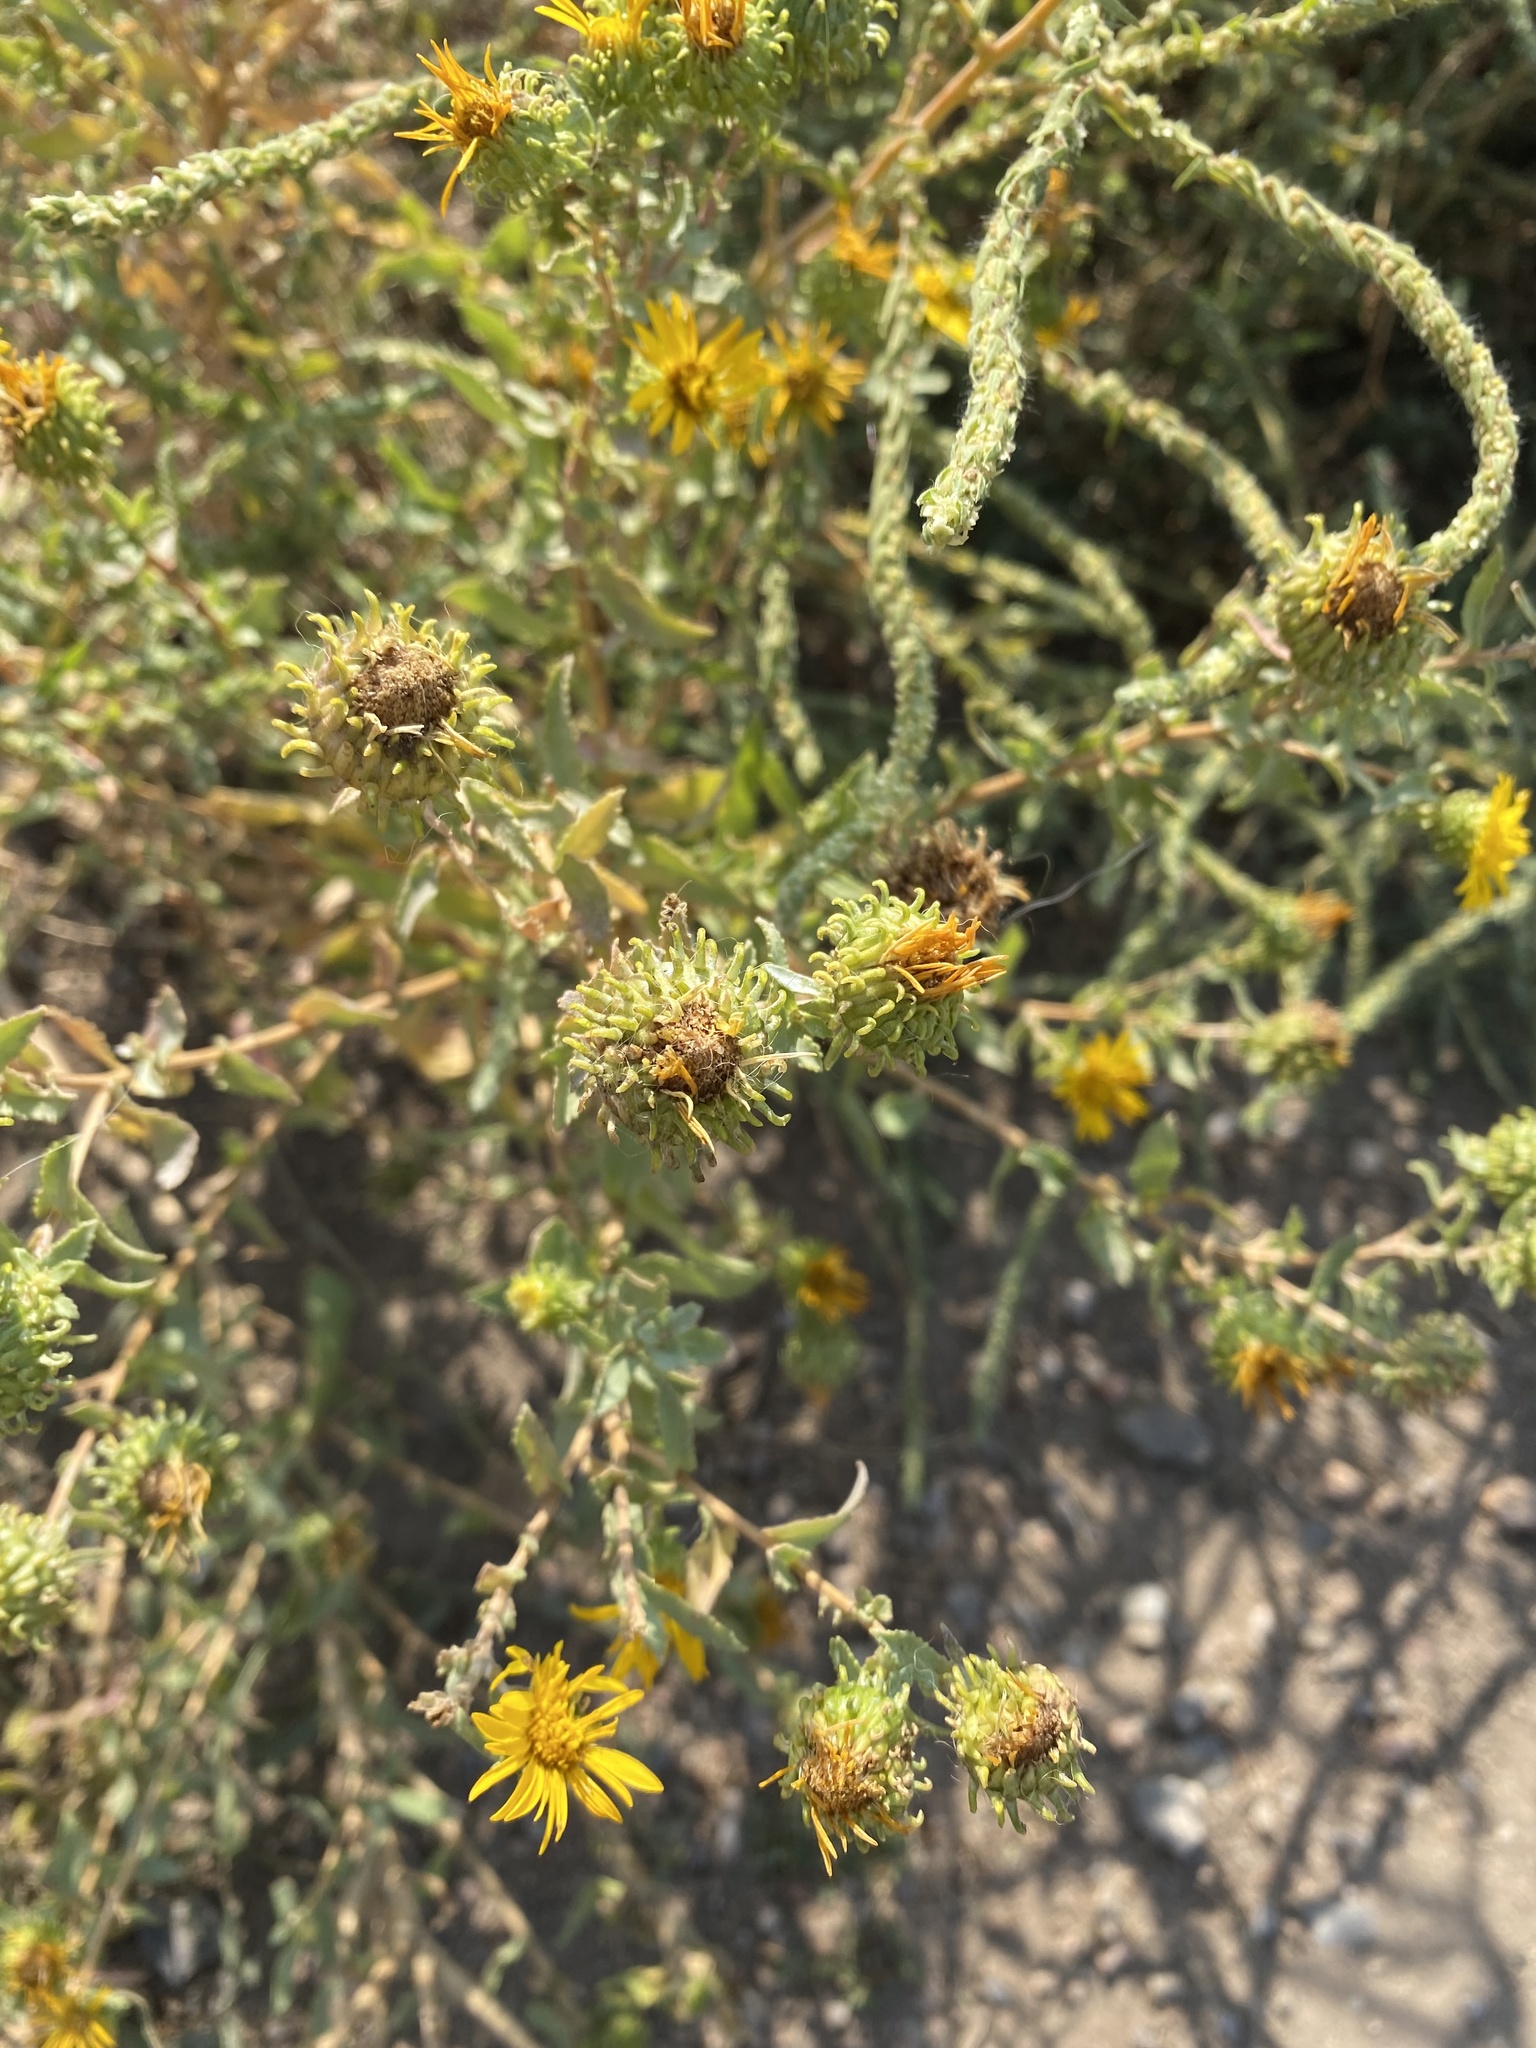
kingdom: Plantae
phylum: Tracheophyta
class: Magnoliopsida
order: Asterales
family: Asteraceae
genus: Grindelia
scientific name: Grindelia squarrosa
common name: Curly-cup gumweed
